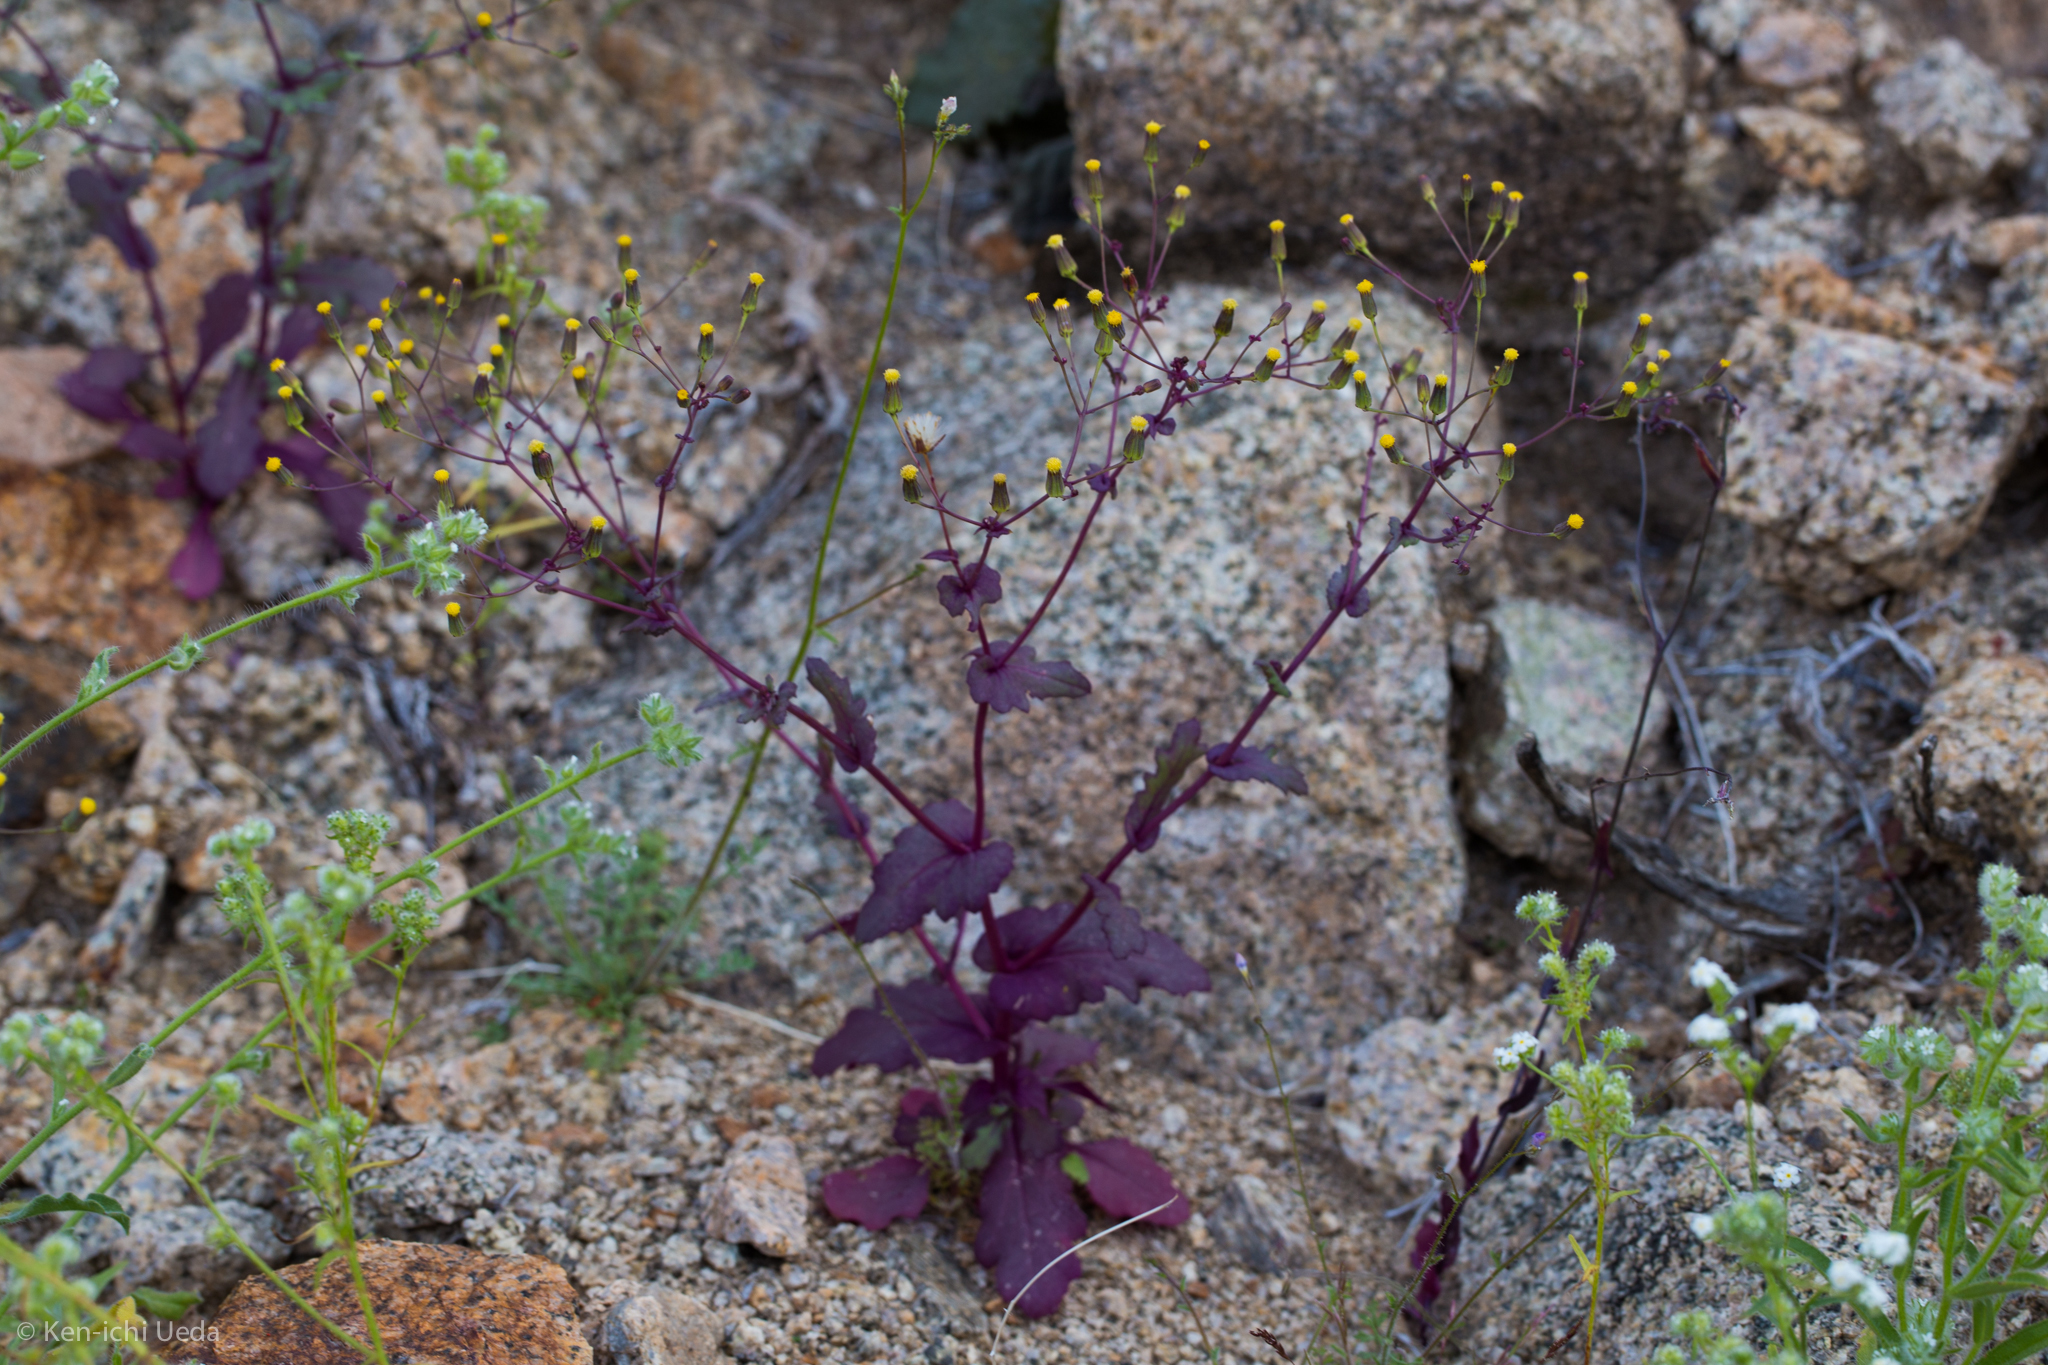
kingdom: Plantae
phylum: Tracheophyta
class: Magnoliopsida
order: Asterales
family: Asteraceae
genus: Senecio
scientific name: Senecio mohavensis
